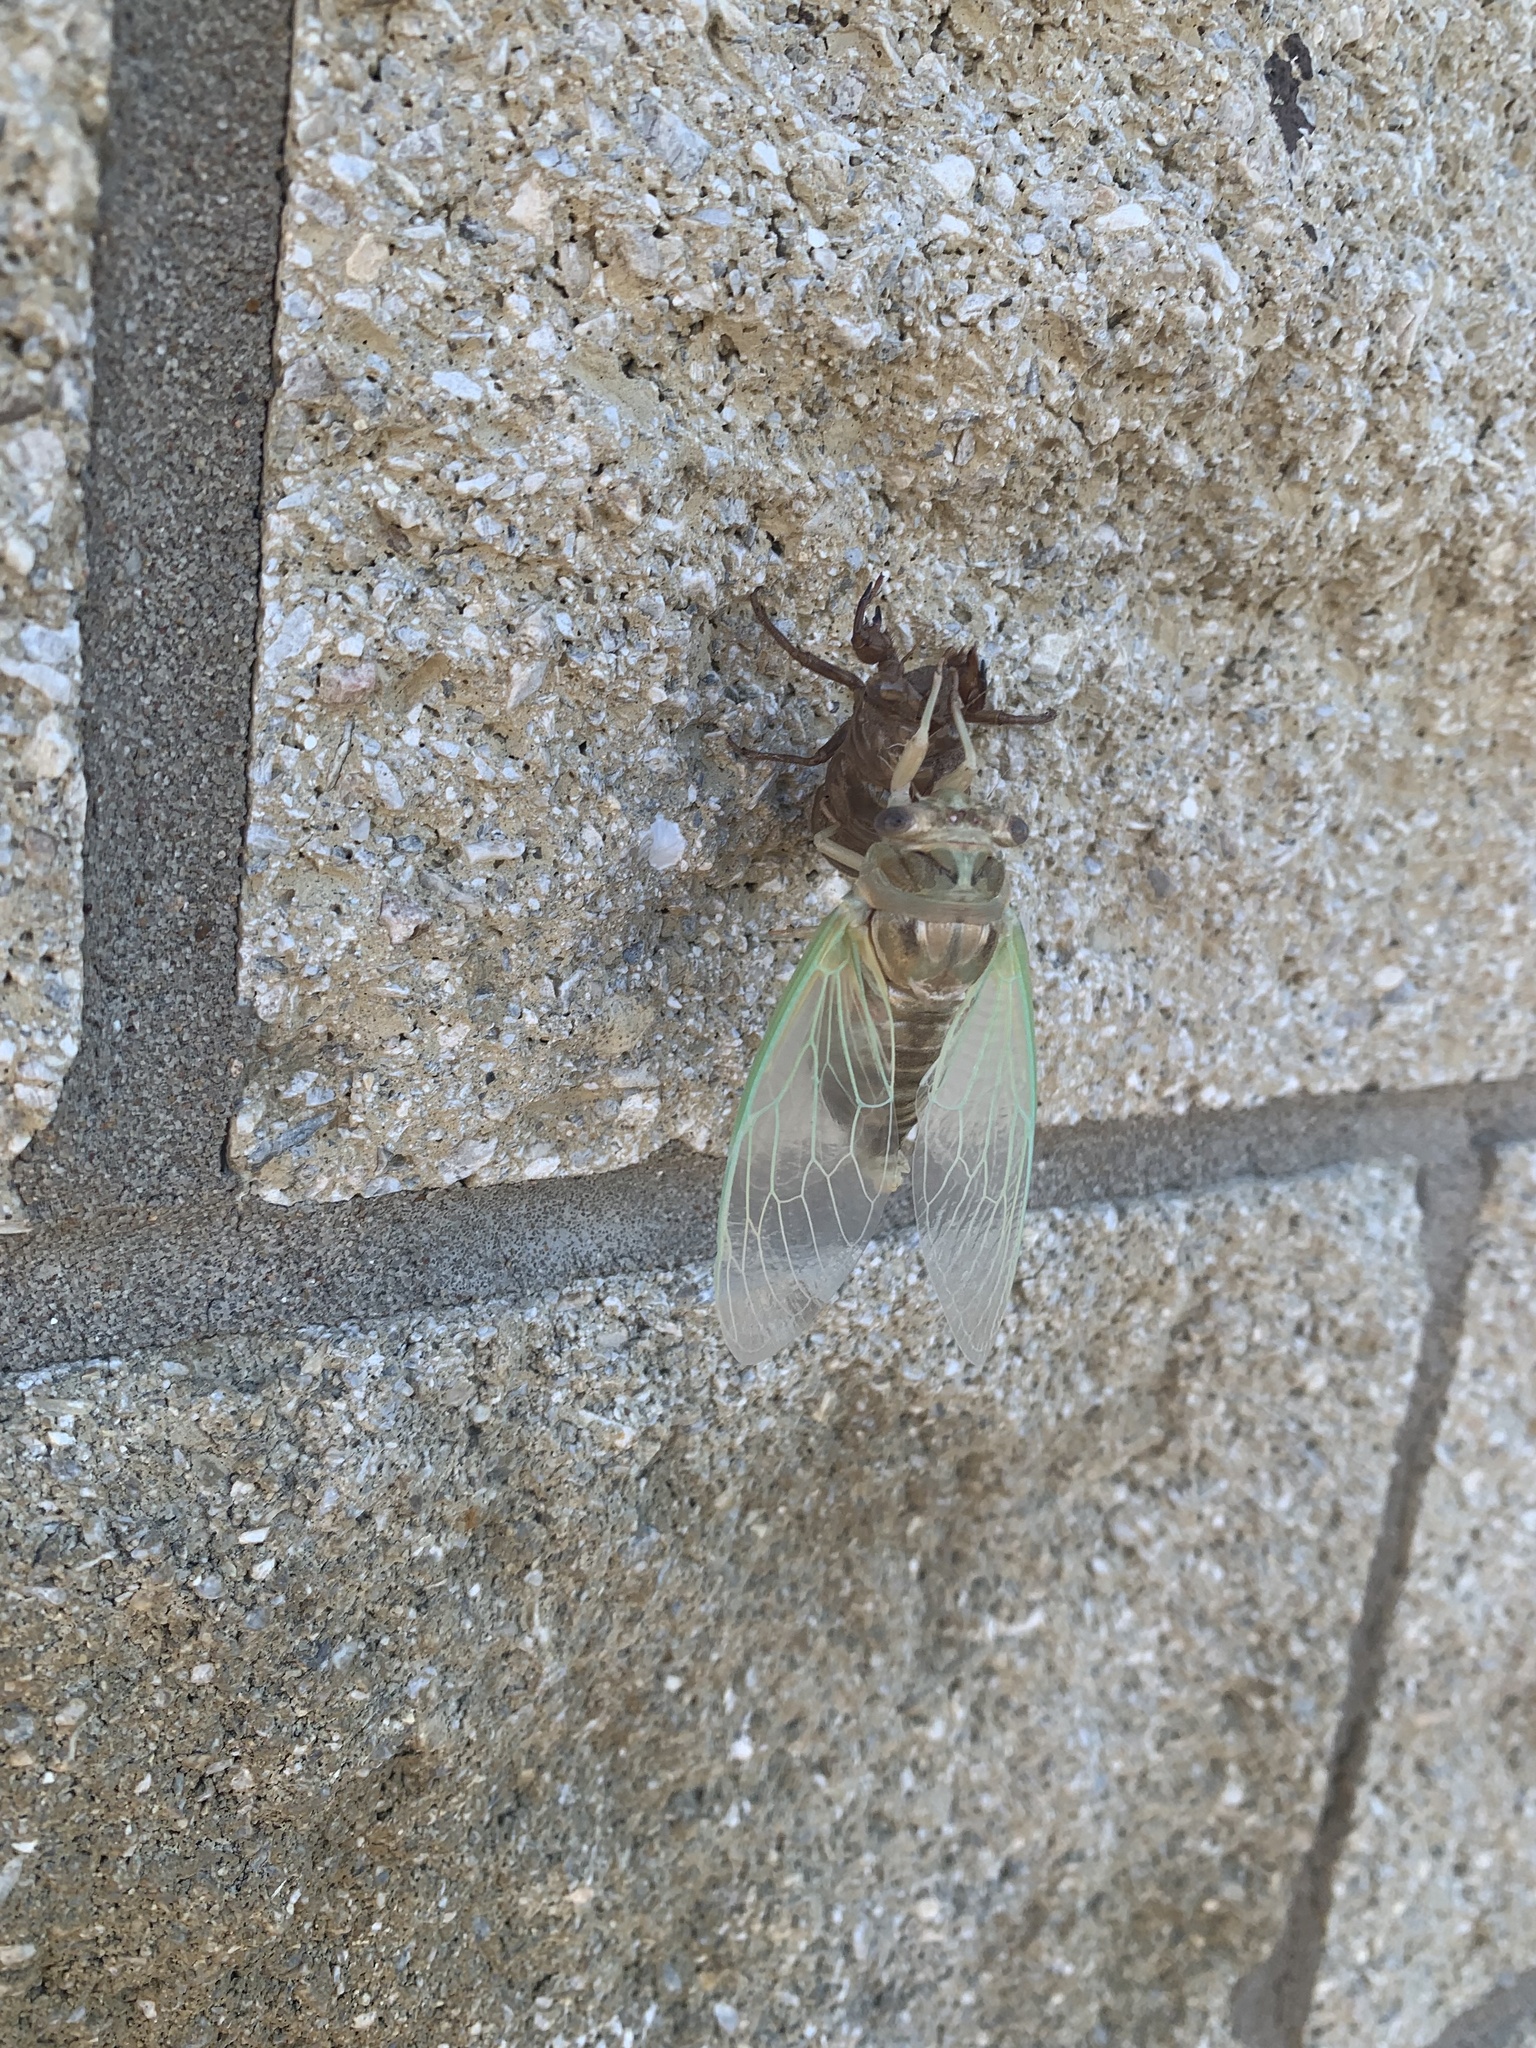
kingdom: Animalia
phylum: Arthropoda
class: Insecta
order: Hemiptera
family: Cicadidae
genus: Megatibicen
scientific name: Megatibicen resh
